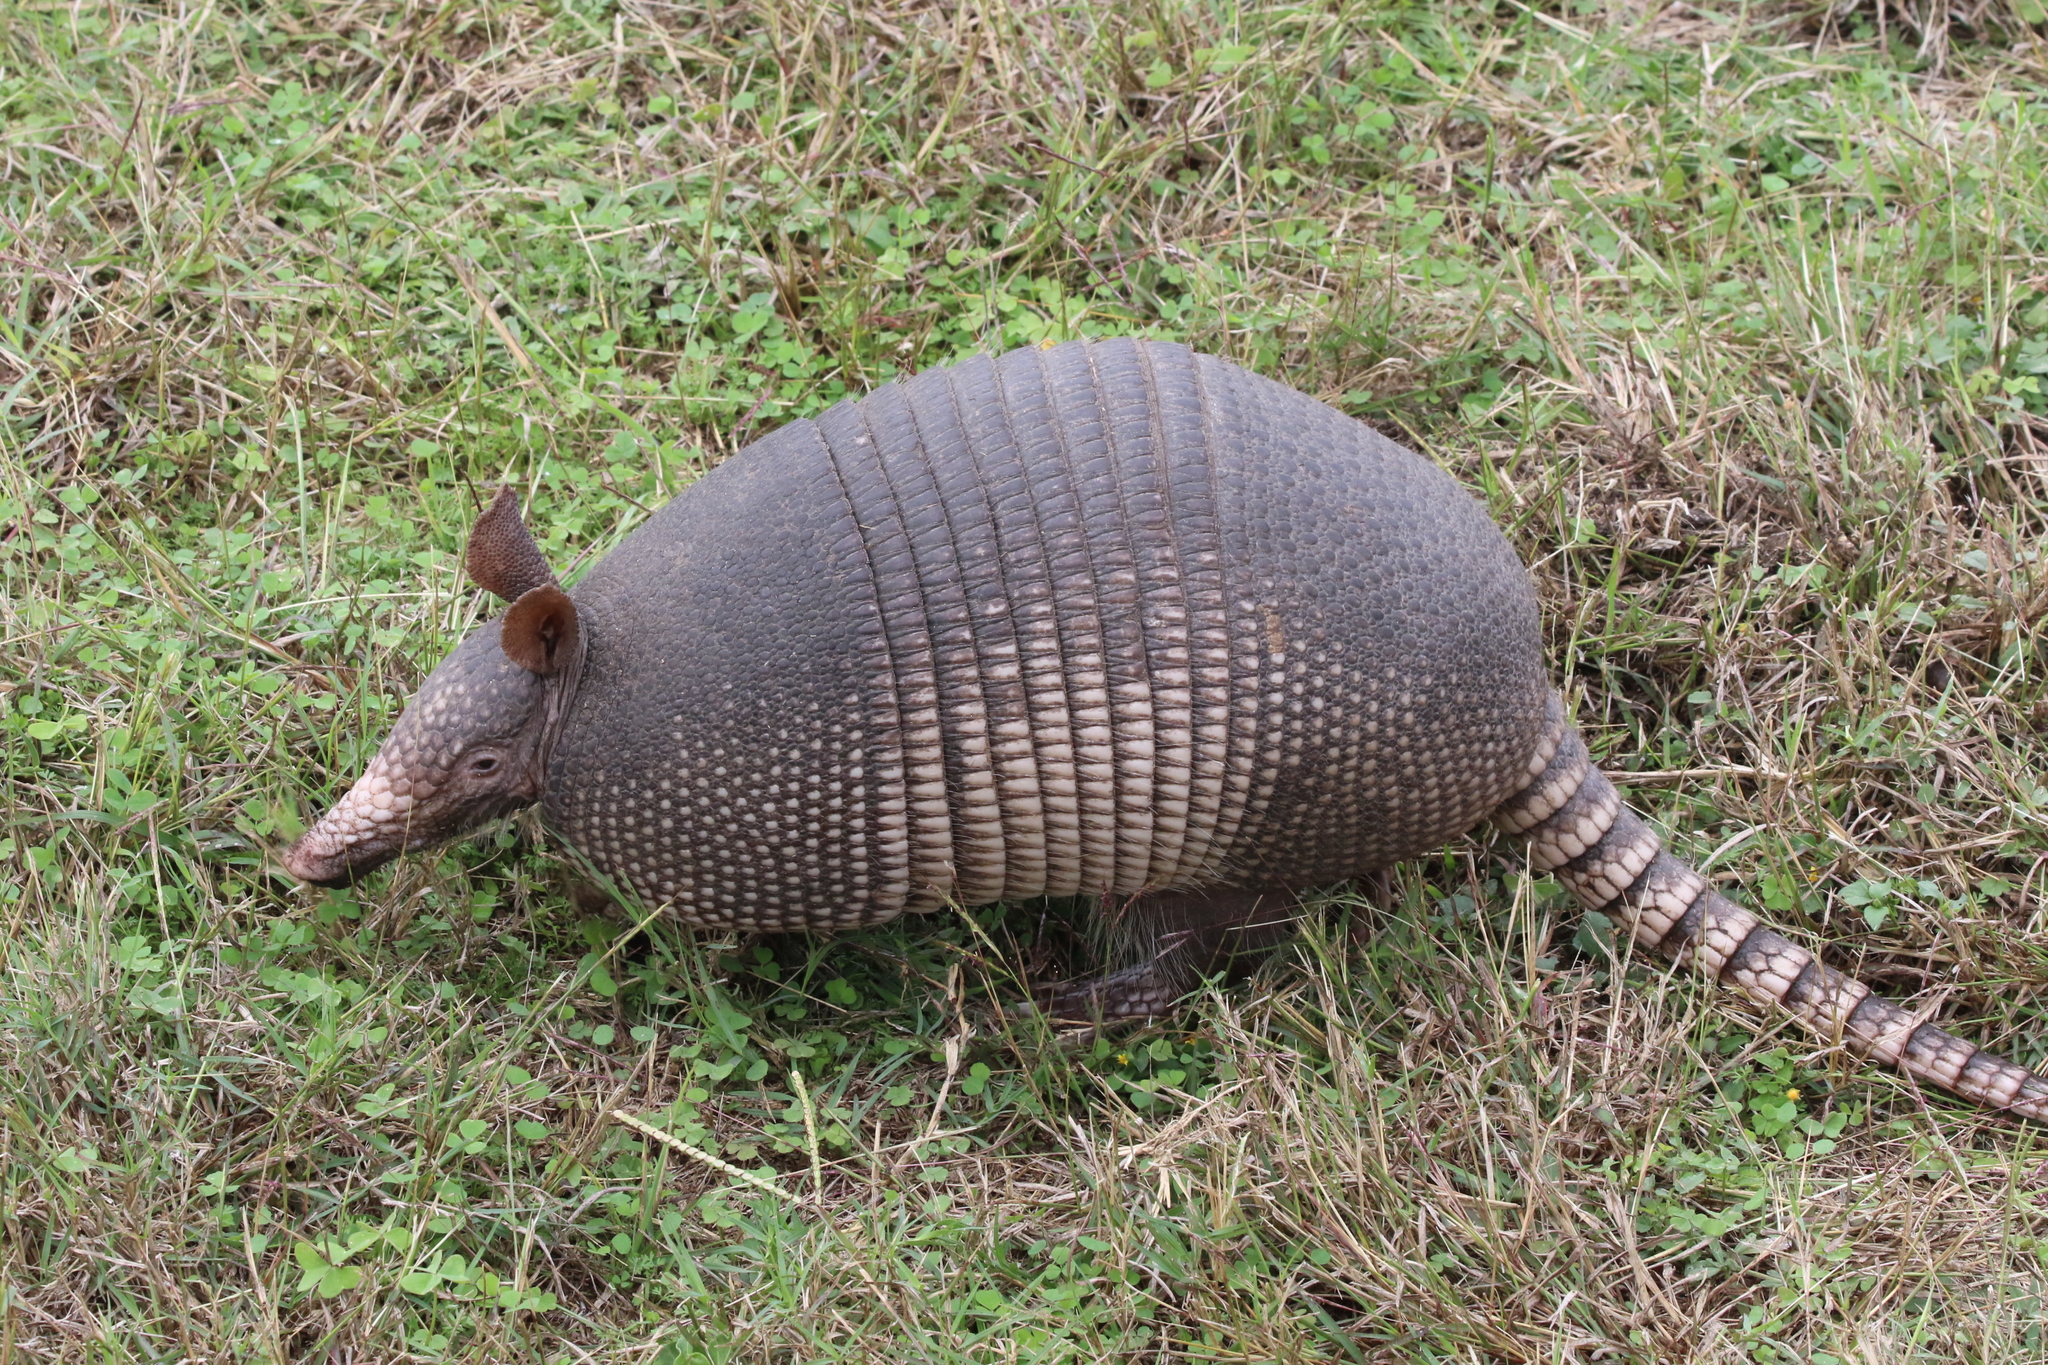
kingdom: Animalia
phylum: Chordata
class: Mammalia
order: Cingulata
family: Dasypodidae
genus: Dasypus
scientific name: Dasypus novemcinctus
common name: Nine-banded armadillo
